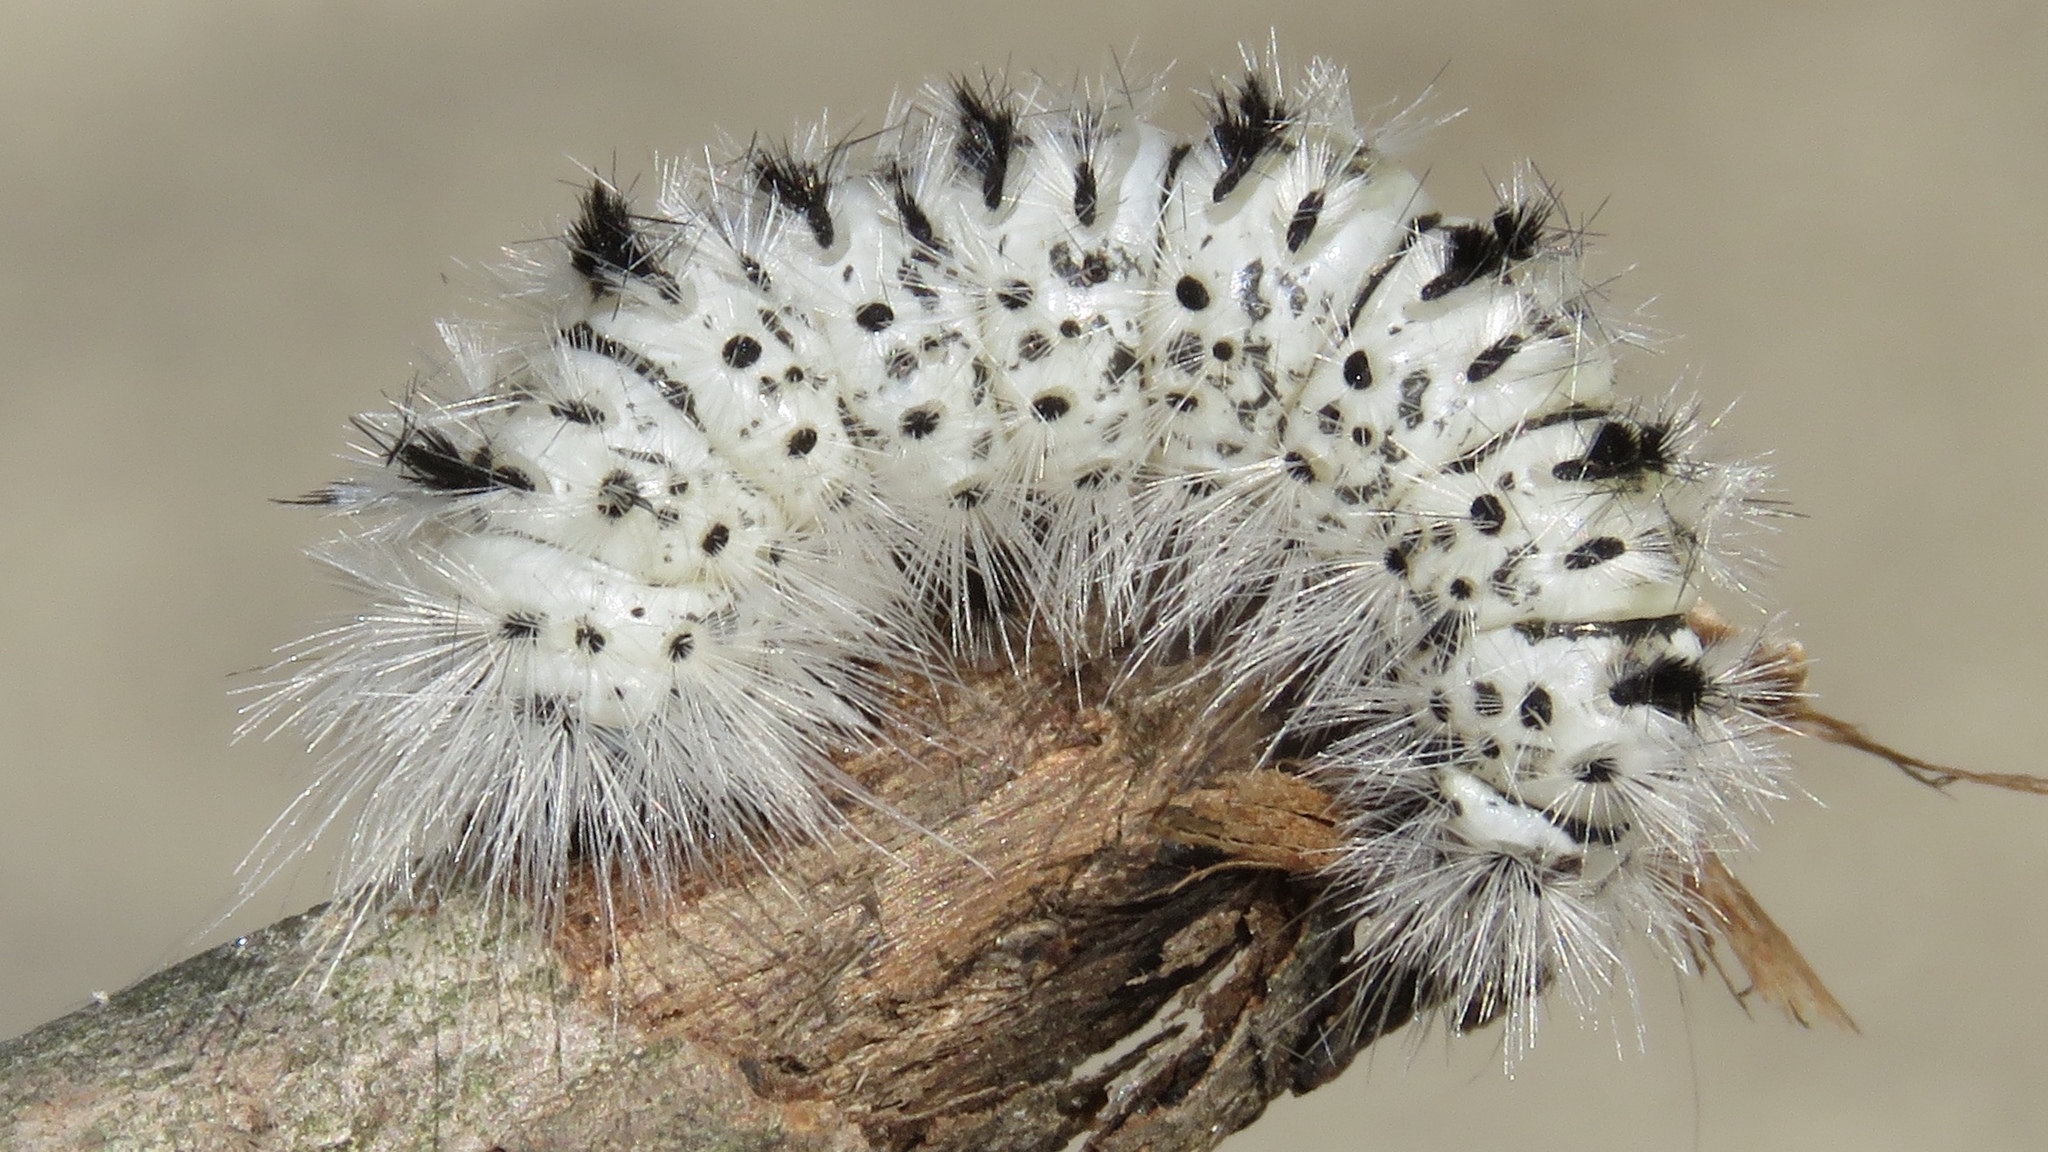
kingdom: Animalia
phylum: Arthropoda
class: Insecta
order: Lepidoptera
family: Erebidae
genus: Lophocampa
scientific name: Lophocampa caryae
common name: Hickory tussock moth
